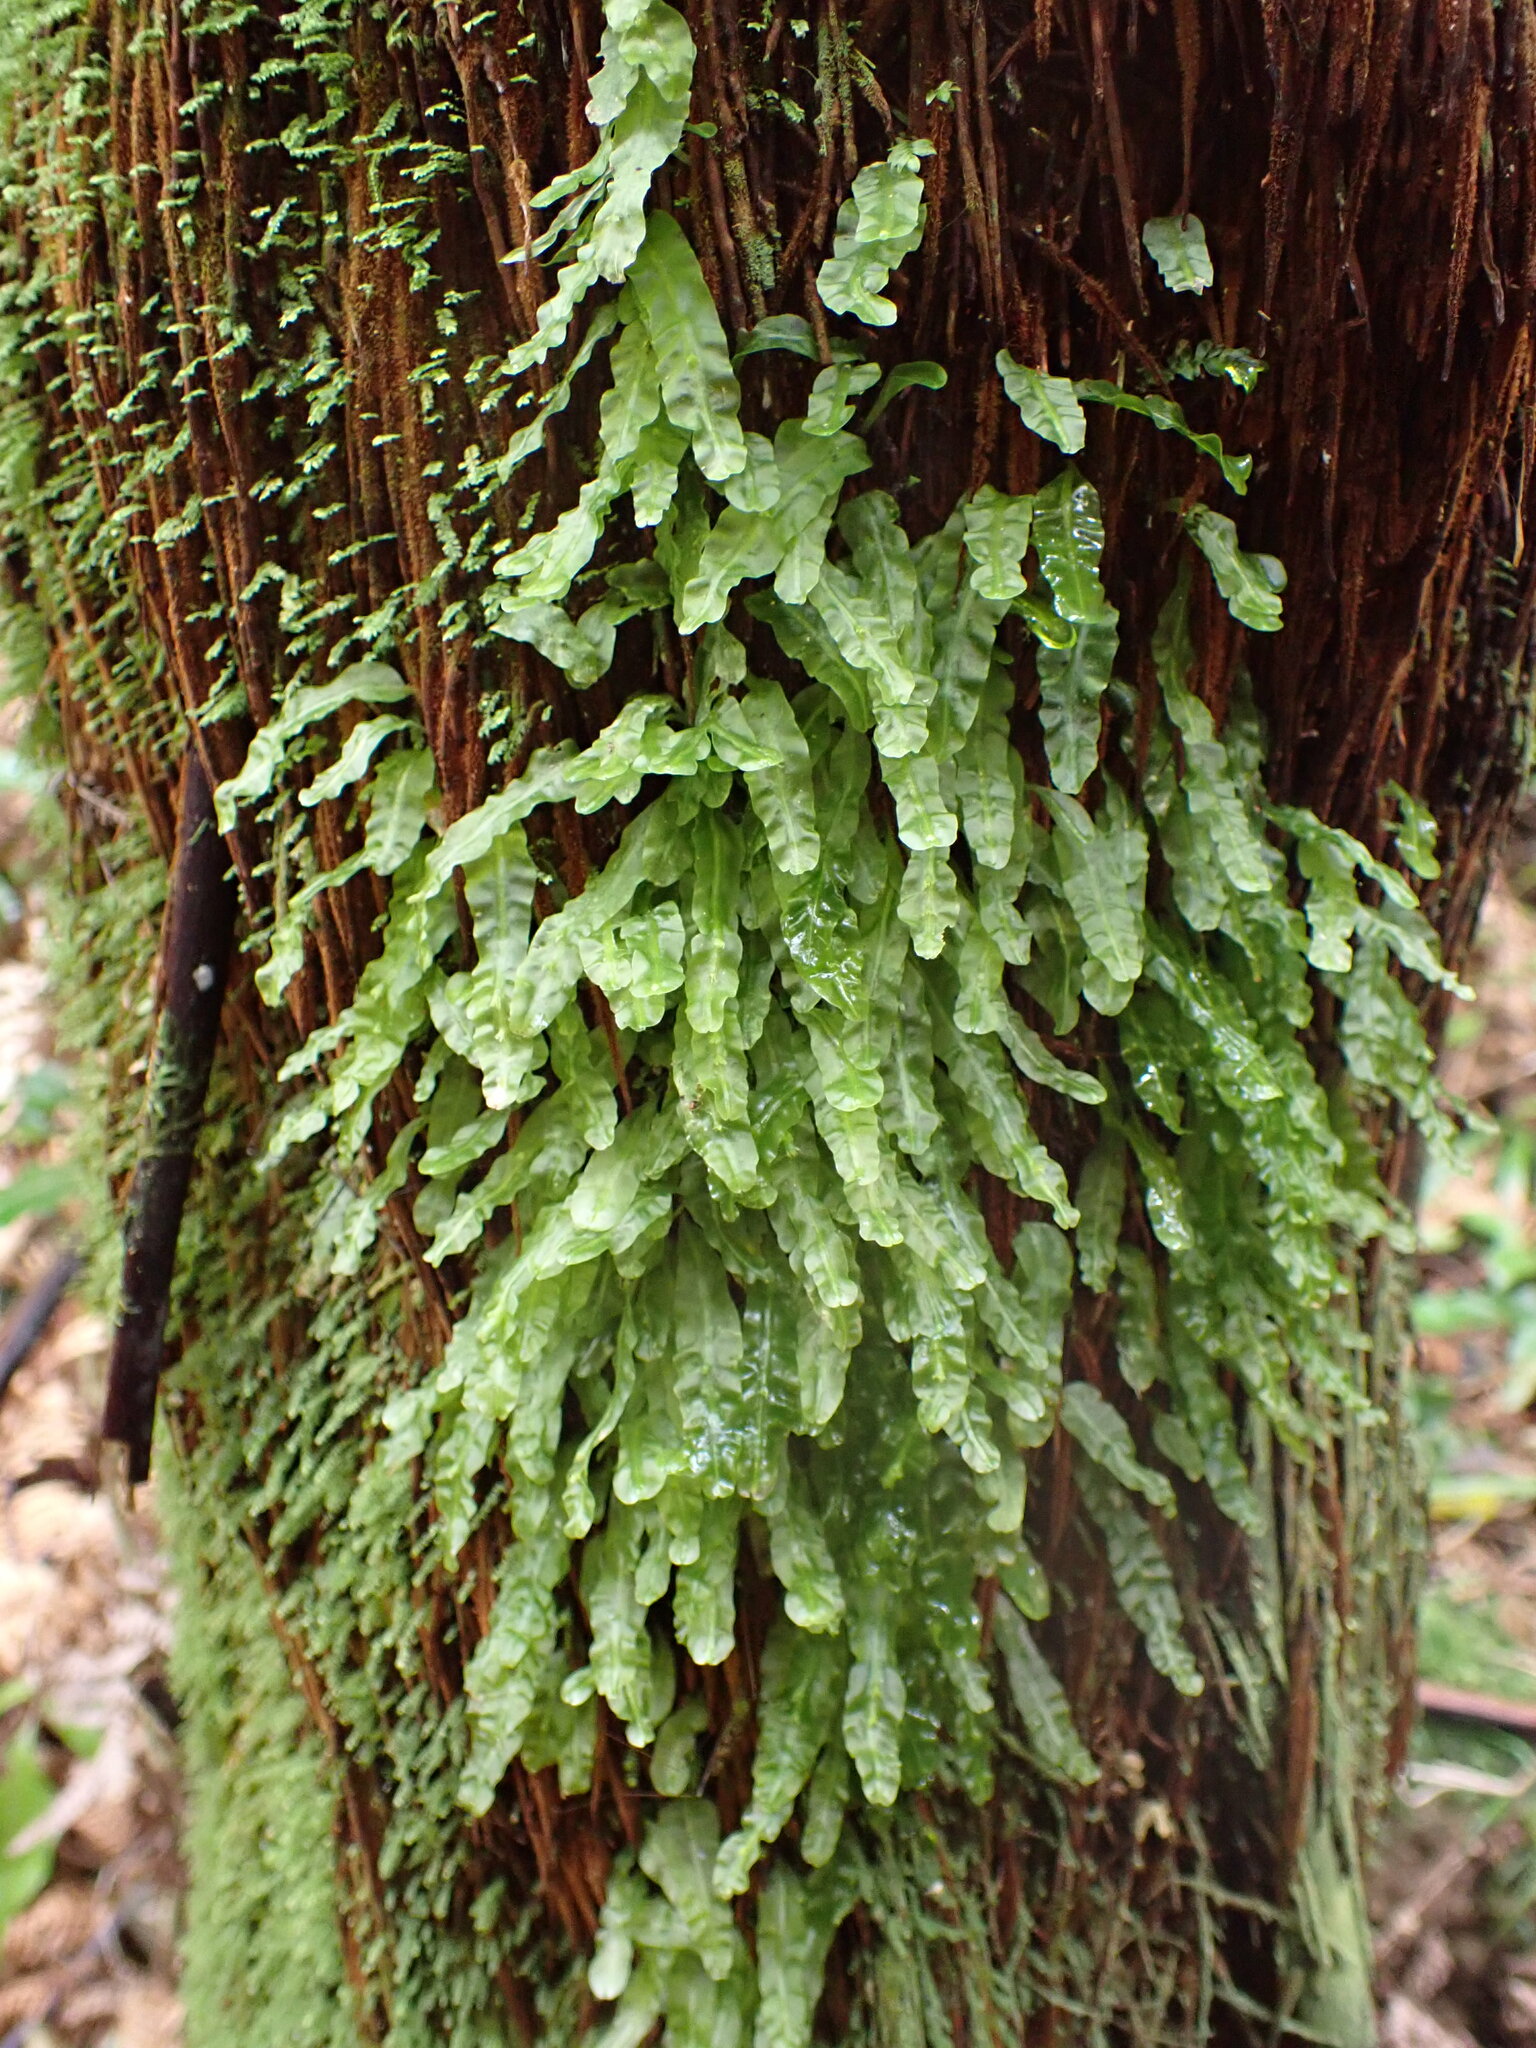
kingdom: Plantae
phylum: Marchantiophyta
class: Jungermanniopsida
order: Pallaviciniales
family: Pallaviciniaceae
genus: Symphyogyna
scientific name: Symphyogyna subsimplex
